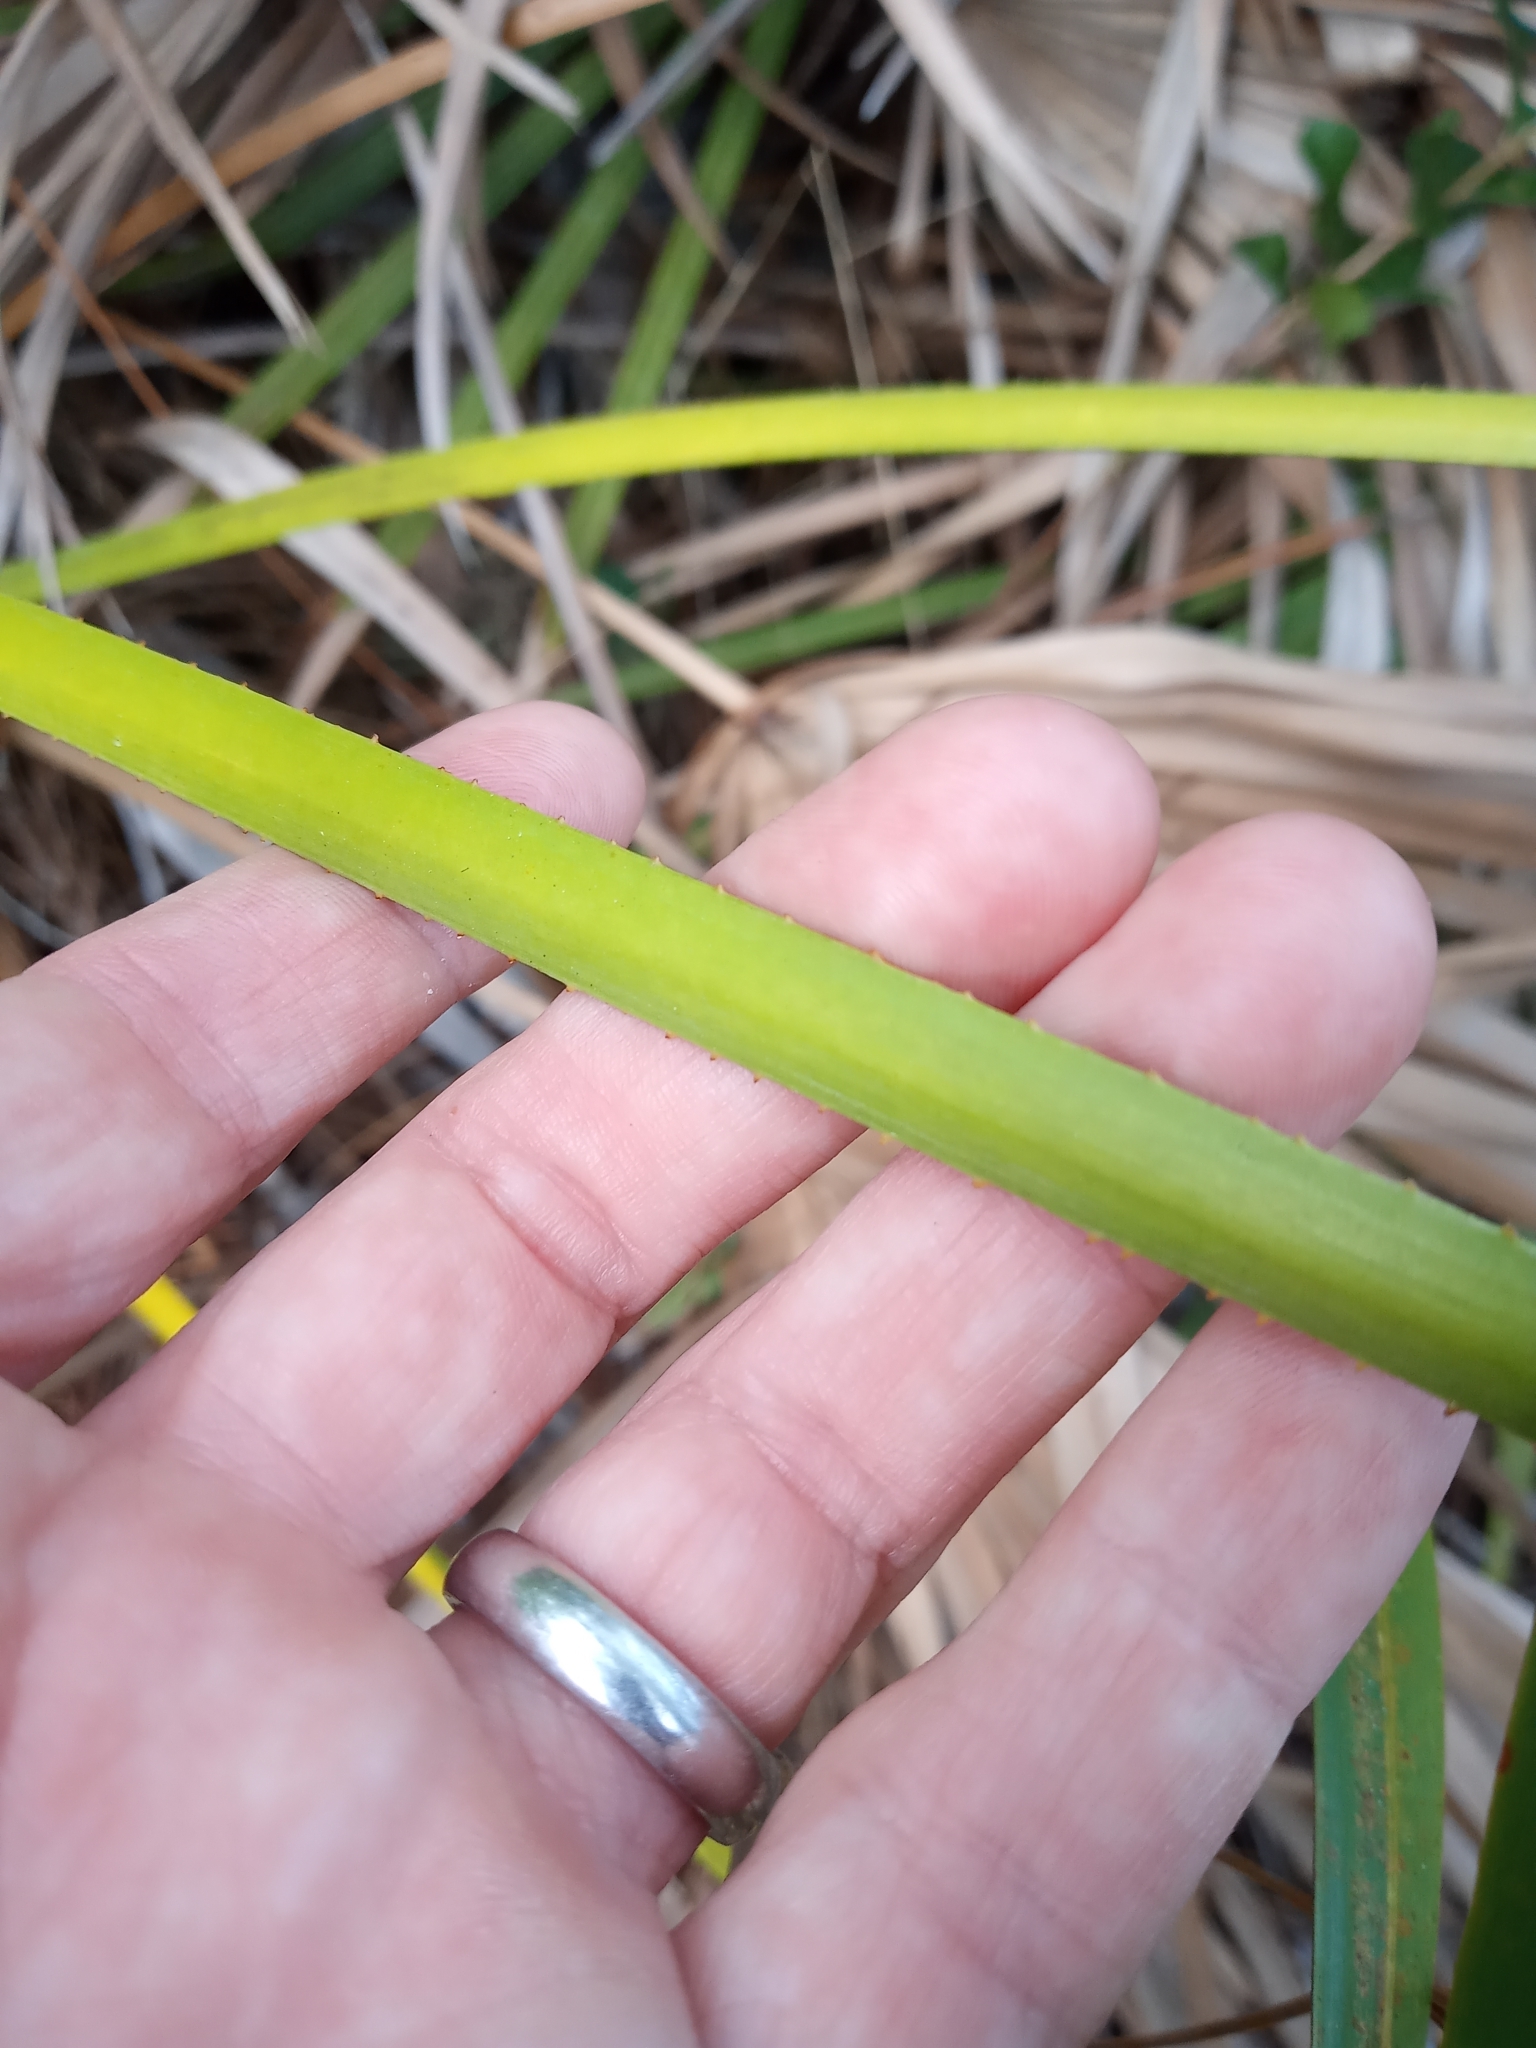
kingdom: Plantae
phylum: Tracheophyta
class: Liliopsida
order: Arecales
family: Arecaceae
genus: Serenoa
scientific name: Serenoa repens
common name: Saw-palmetto
